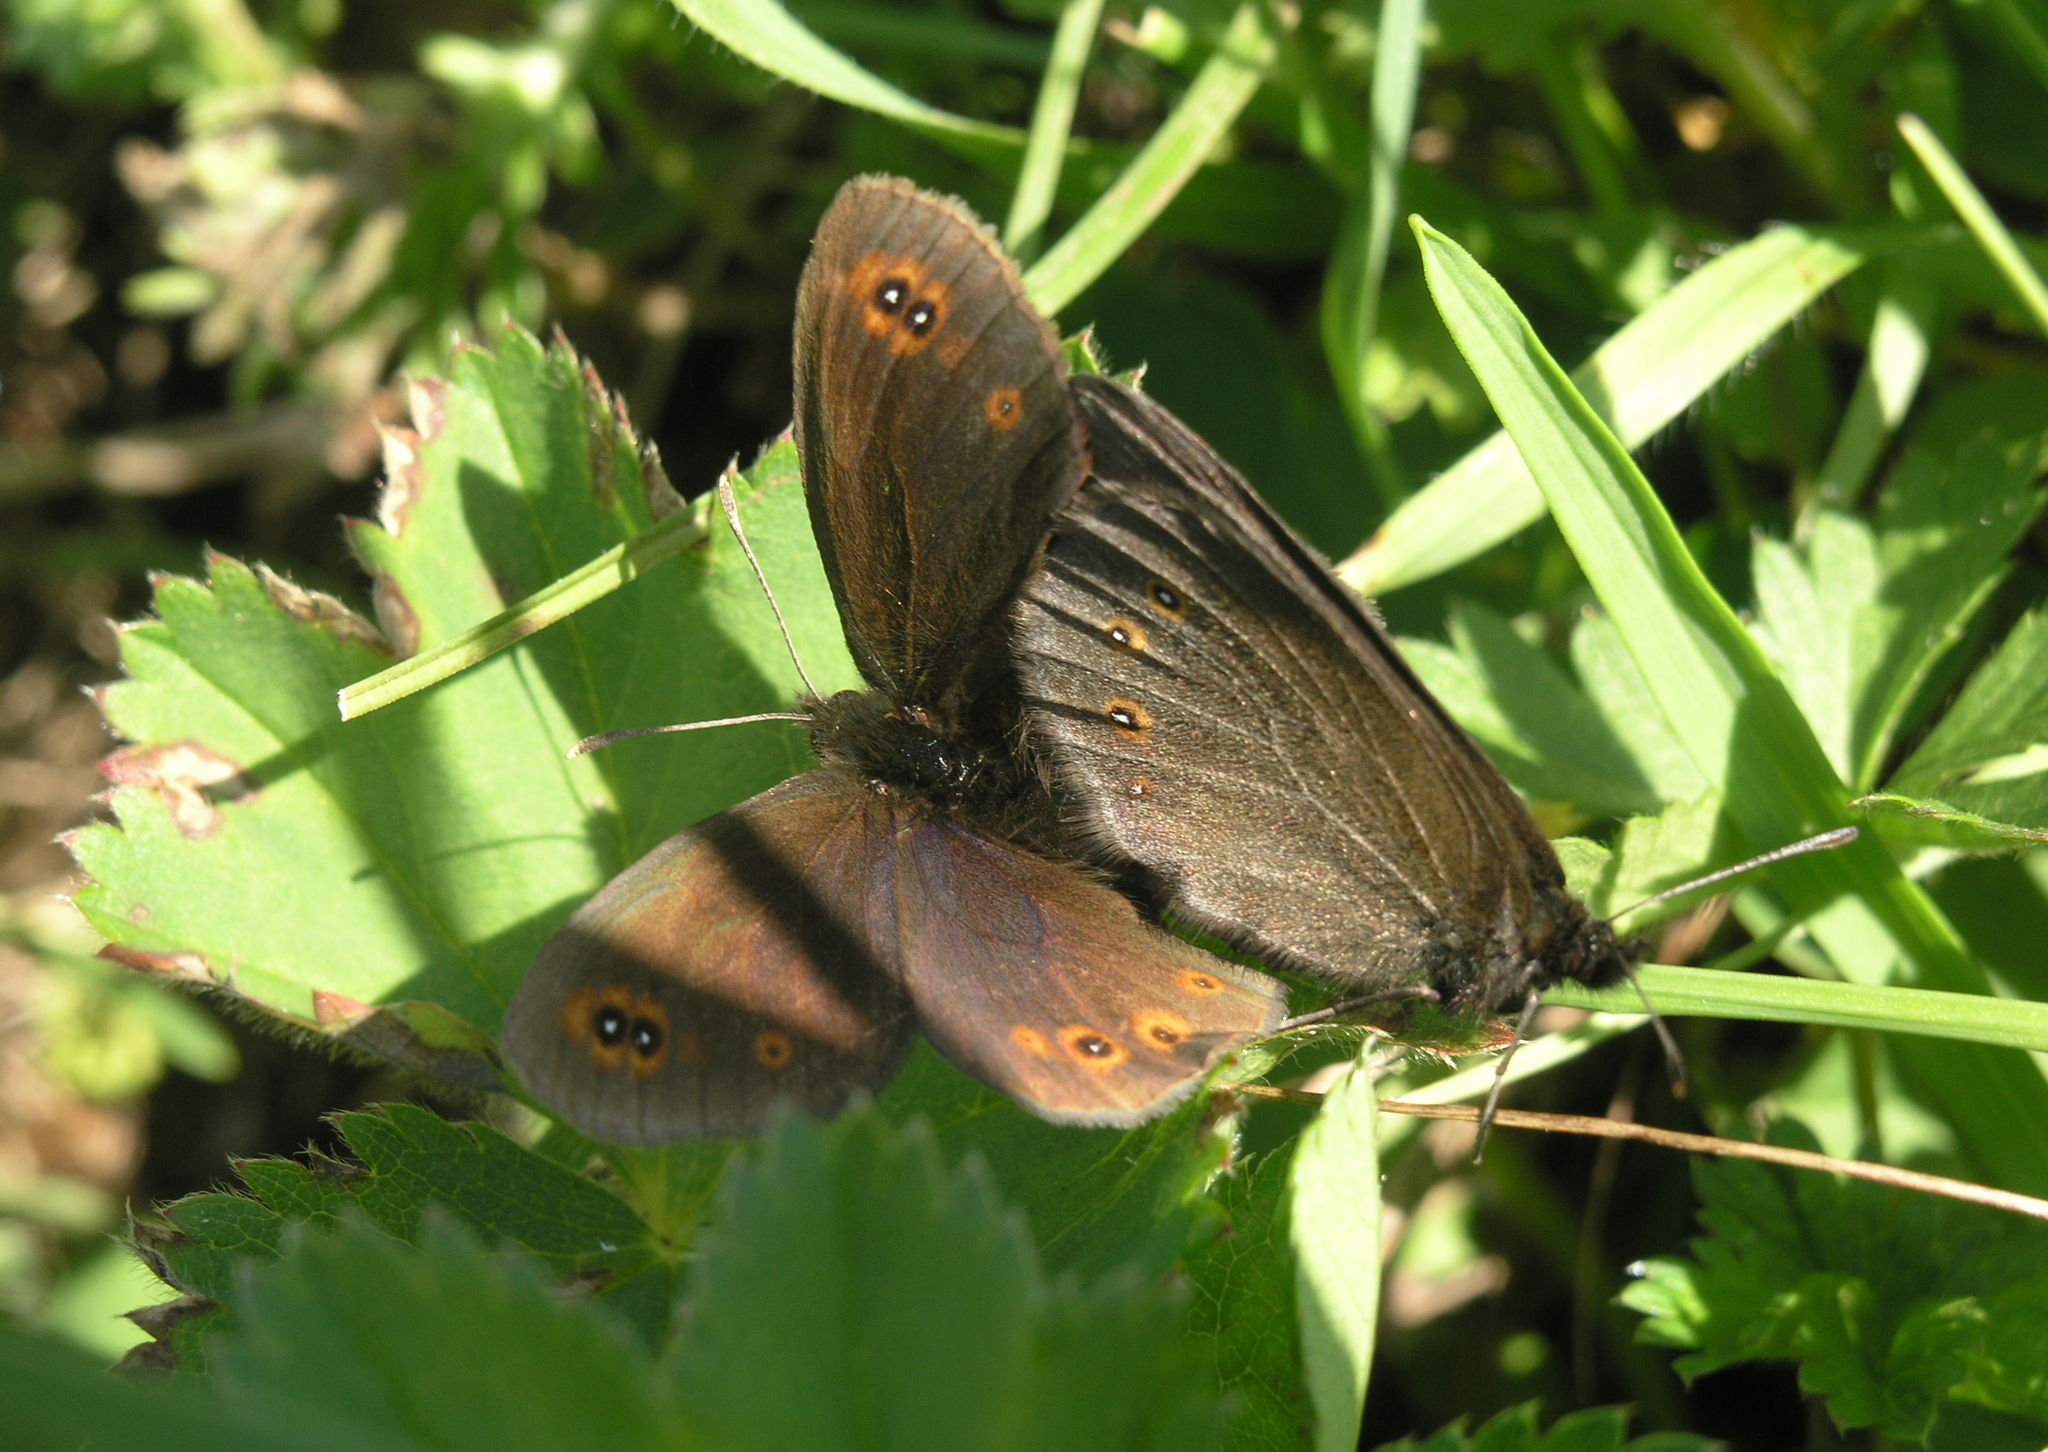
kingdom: Animalia
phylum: Arthropoda
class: Insecta
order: Lepidoptera
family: Nymphalidae
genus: Erebia
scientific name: Erebia medusa
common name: Woodland ringlet
